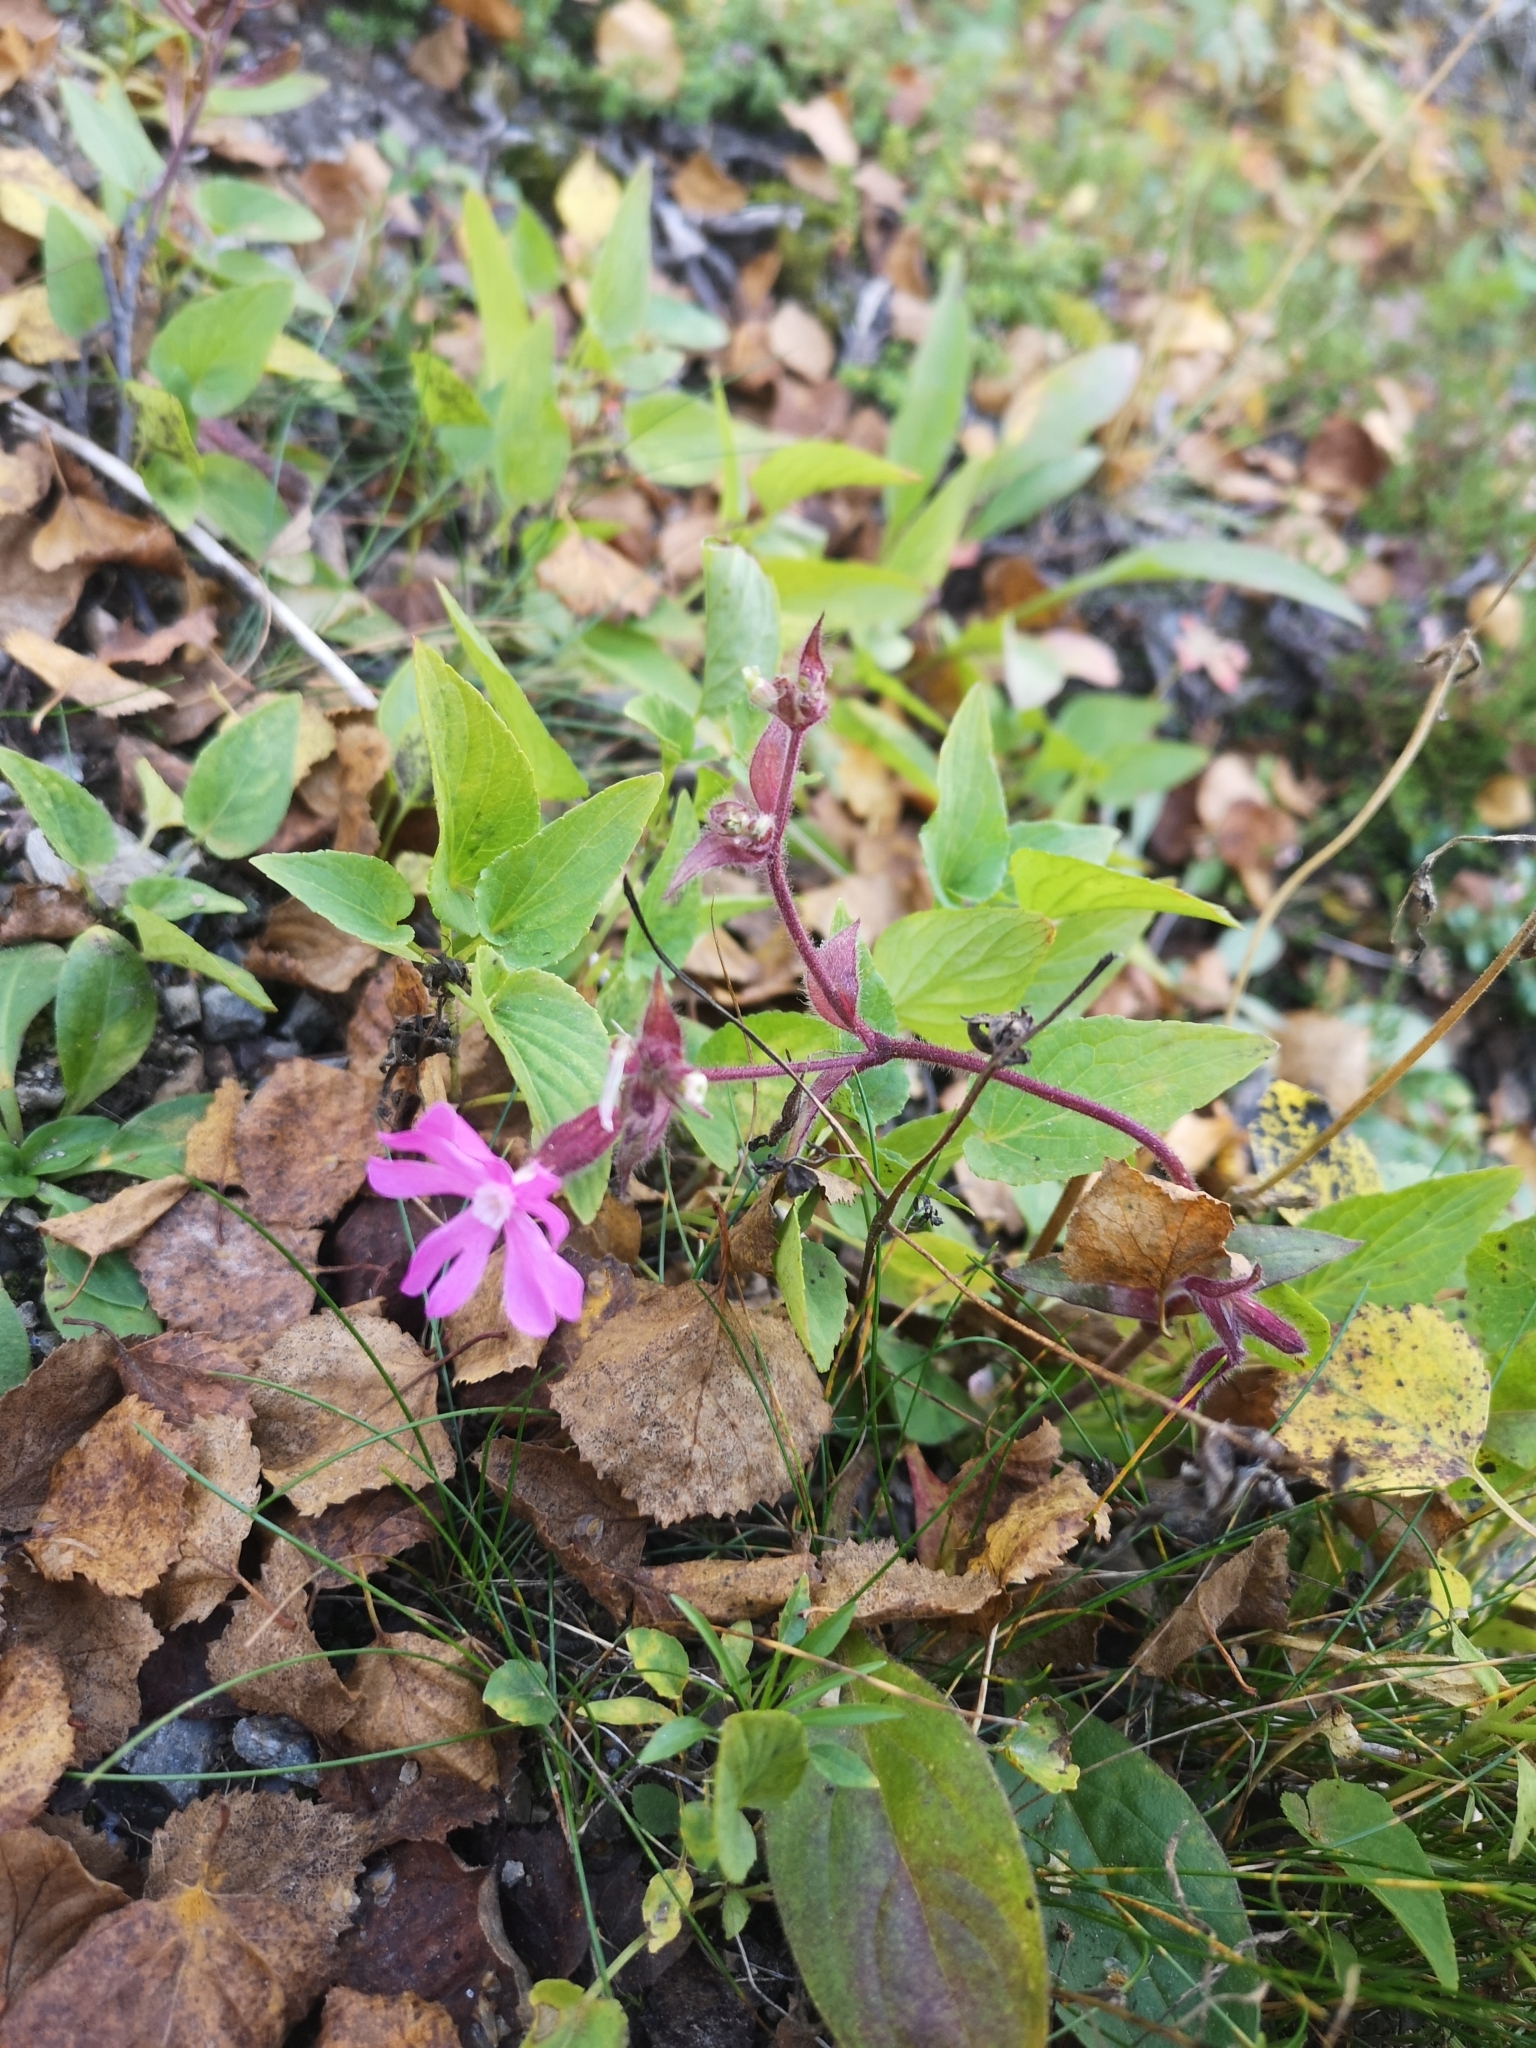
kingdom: Plantae
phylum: Tracheophyta
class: Magnoliopsida
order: Caryophyllales
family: Caryophyllaceae
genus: Silene
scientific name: Silene dioica
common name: Red campion
